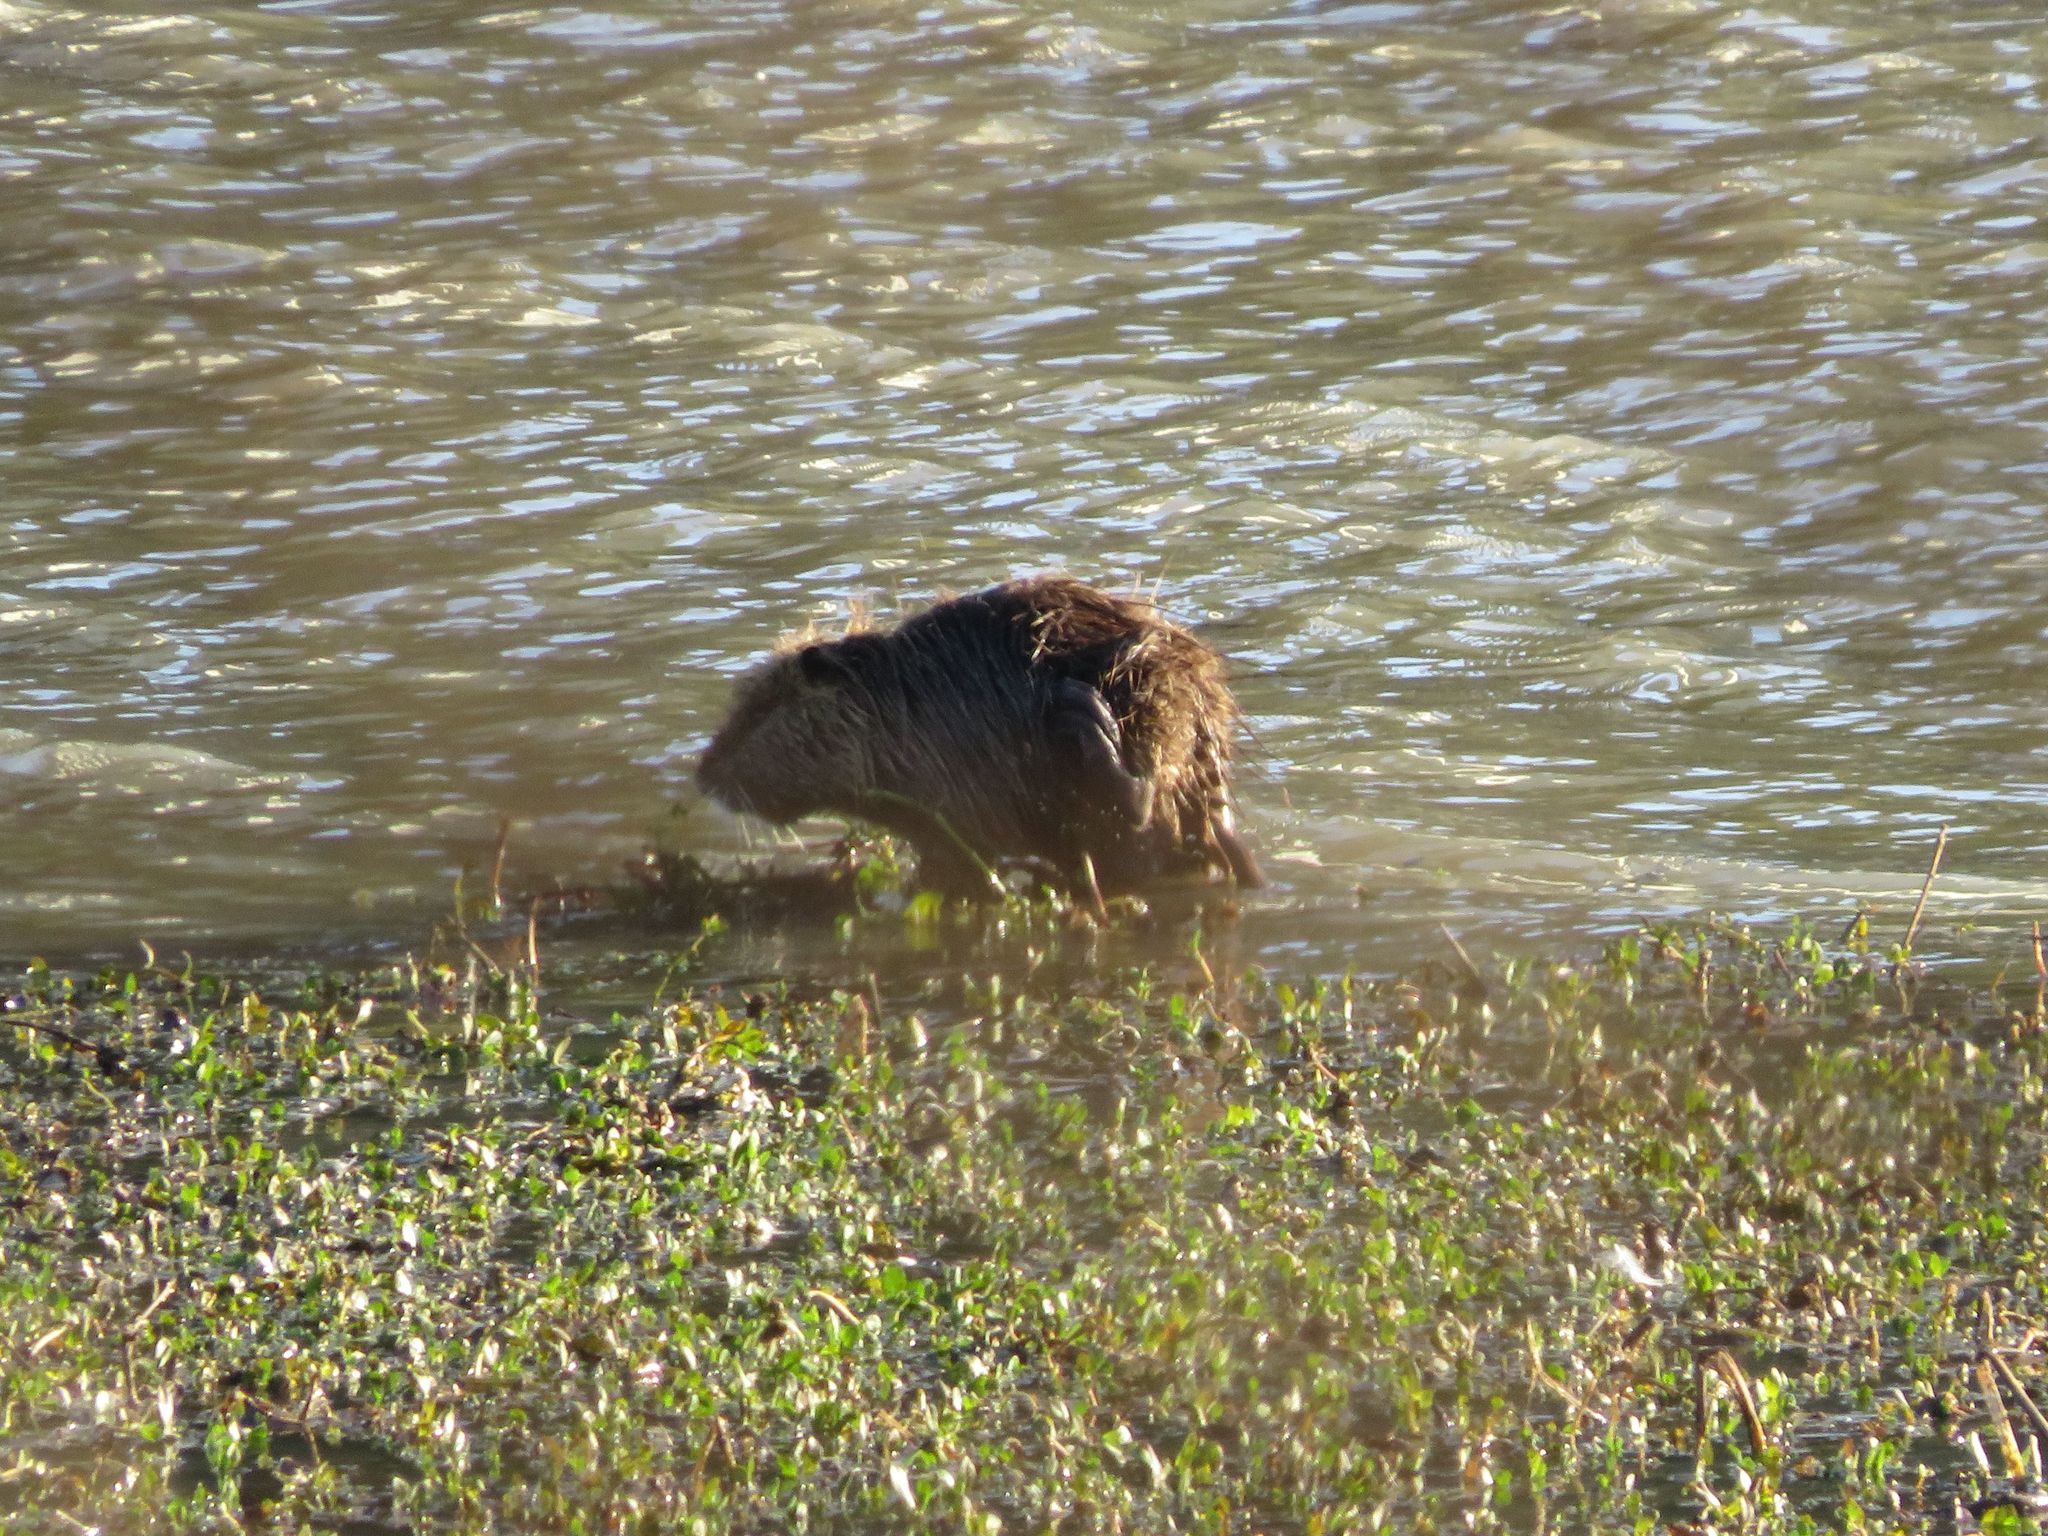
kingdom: Animalia
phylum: Chordata
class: Mammalia
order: Rodentia
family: Myocastoridae
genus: Myocastor
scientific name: Myocastor coypus
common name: Coypu
